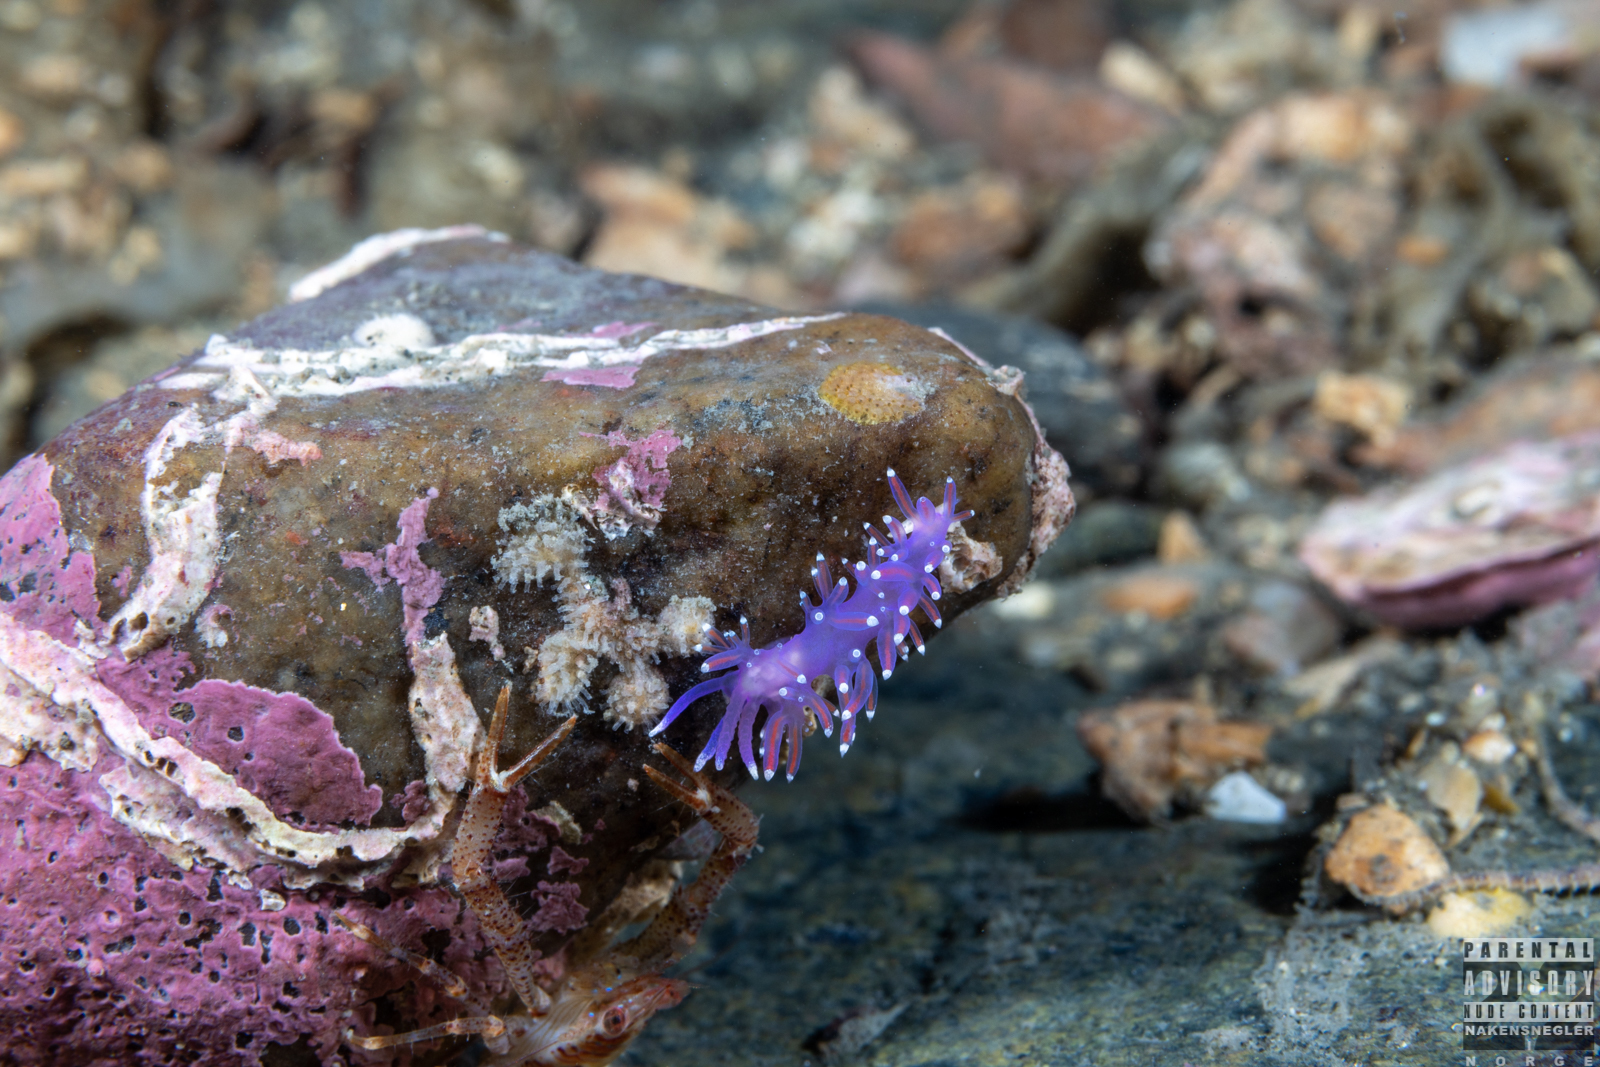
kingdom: Animalia
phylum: Mollusca
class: Gastropoda
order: Nudibranchia
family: Flabellinidae
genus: Edmundsella
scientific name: Edmundsella pedata
